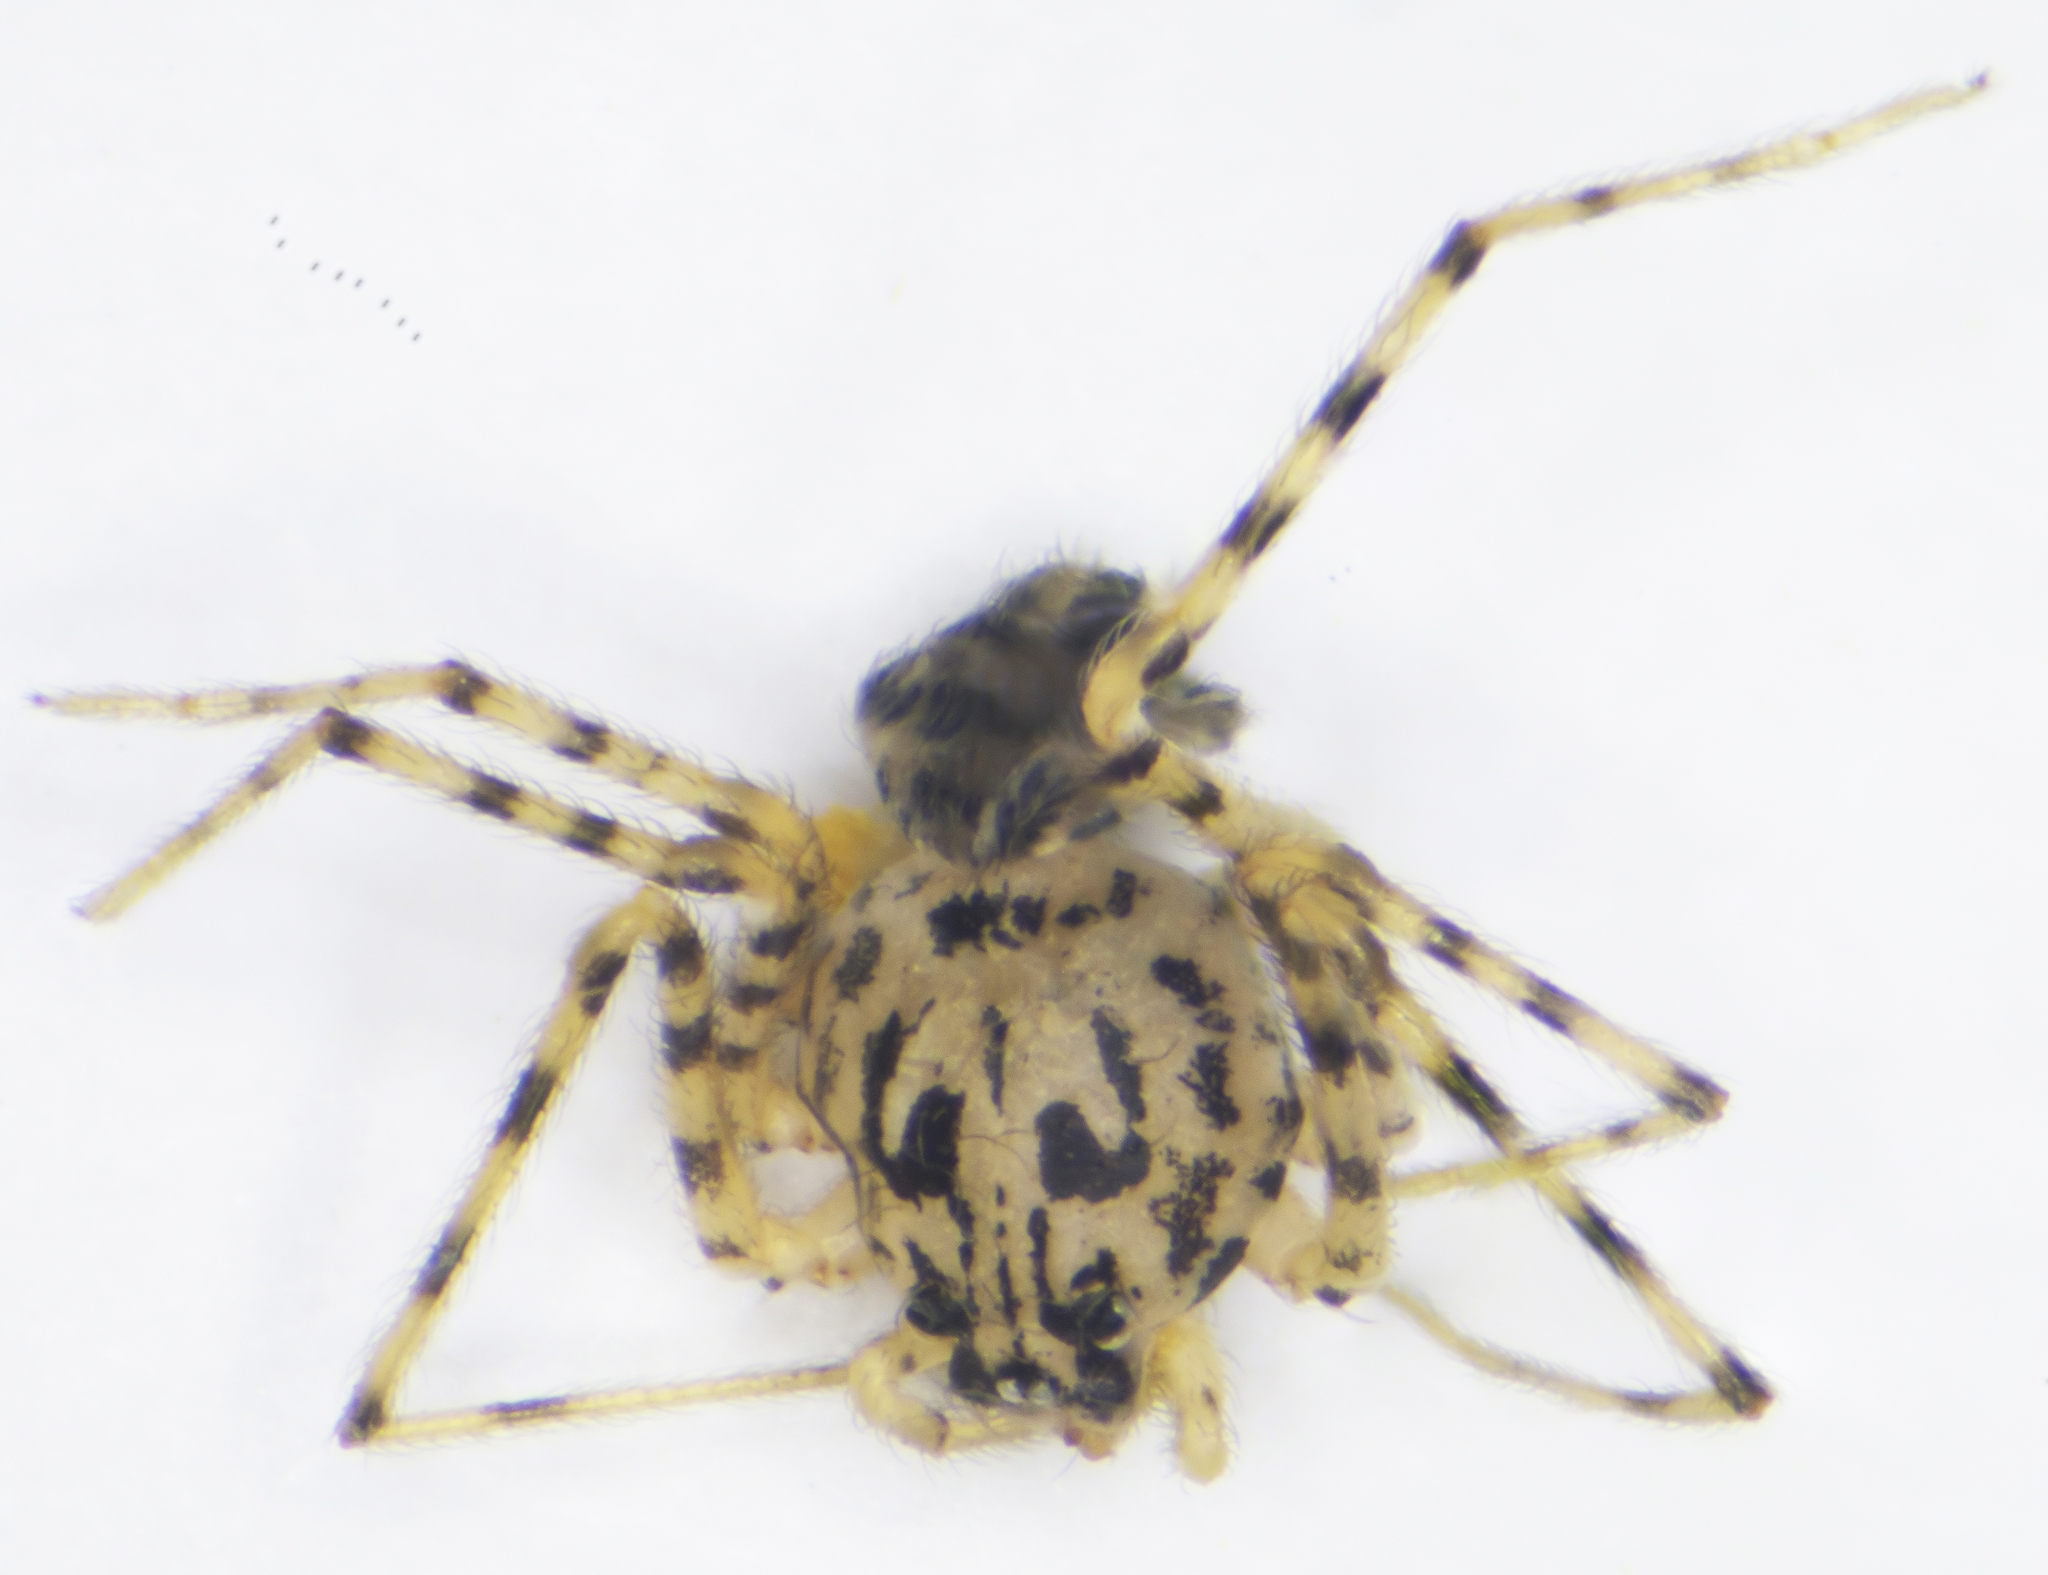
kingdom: Animalia
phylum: Arthropoda
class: Arachnida
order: Araneae
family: Scytodidae
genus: Scytodes
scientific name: Scytodes thoracica
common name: Spitting spider
